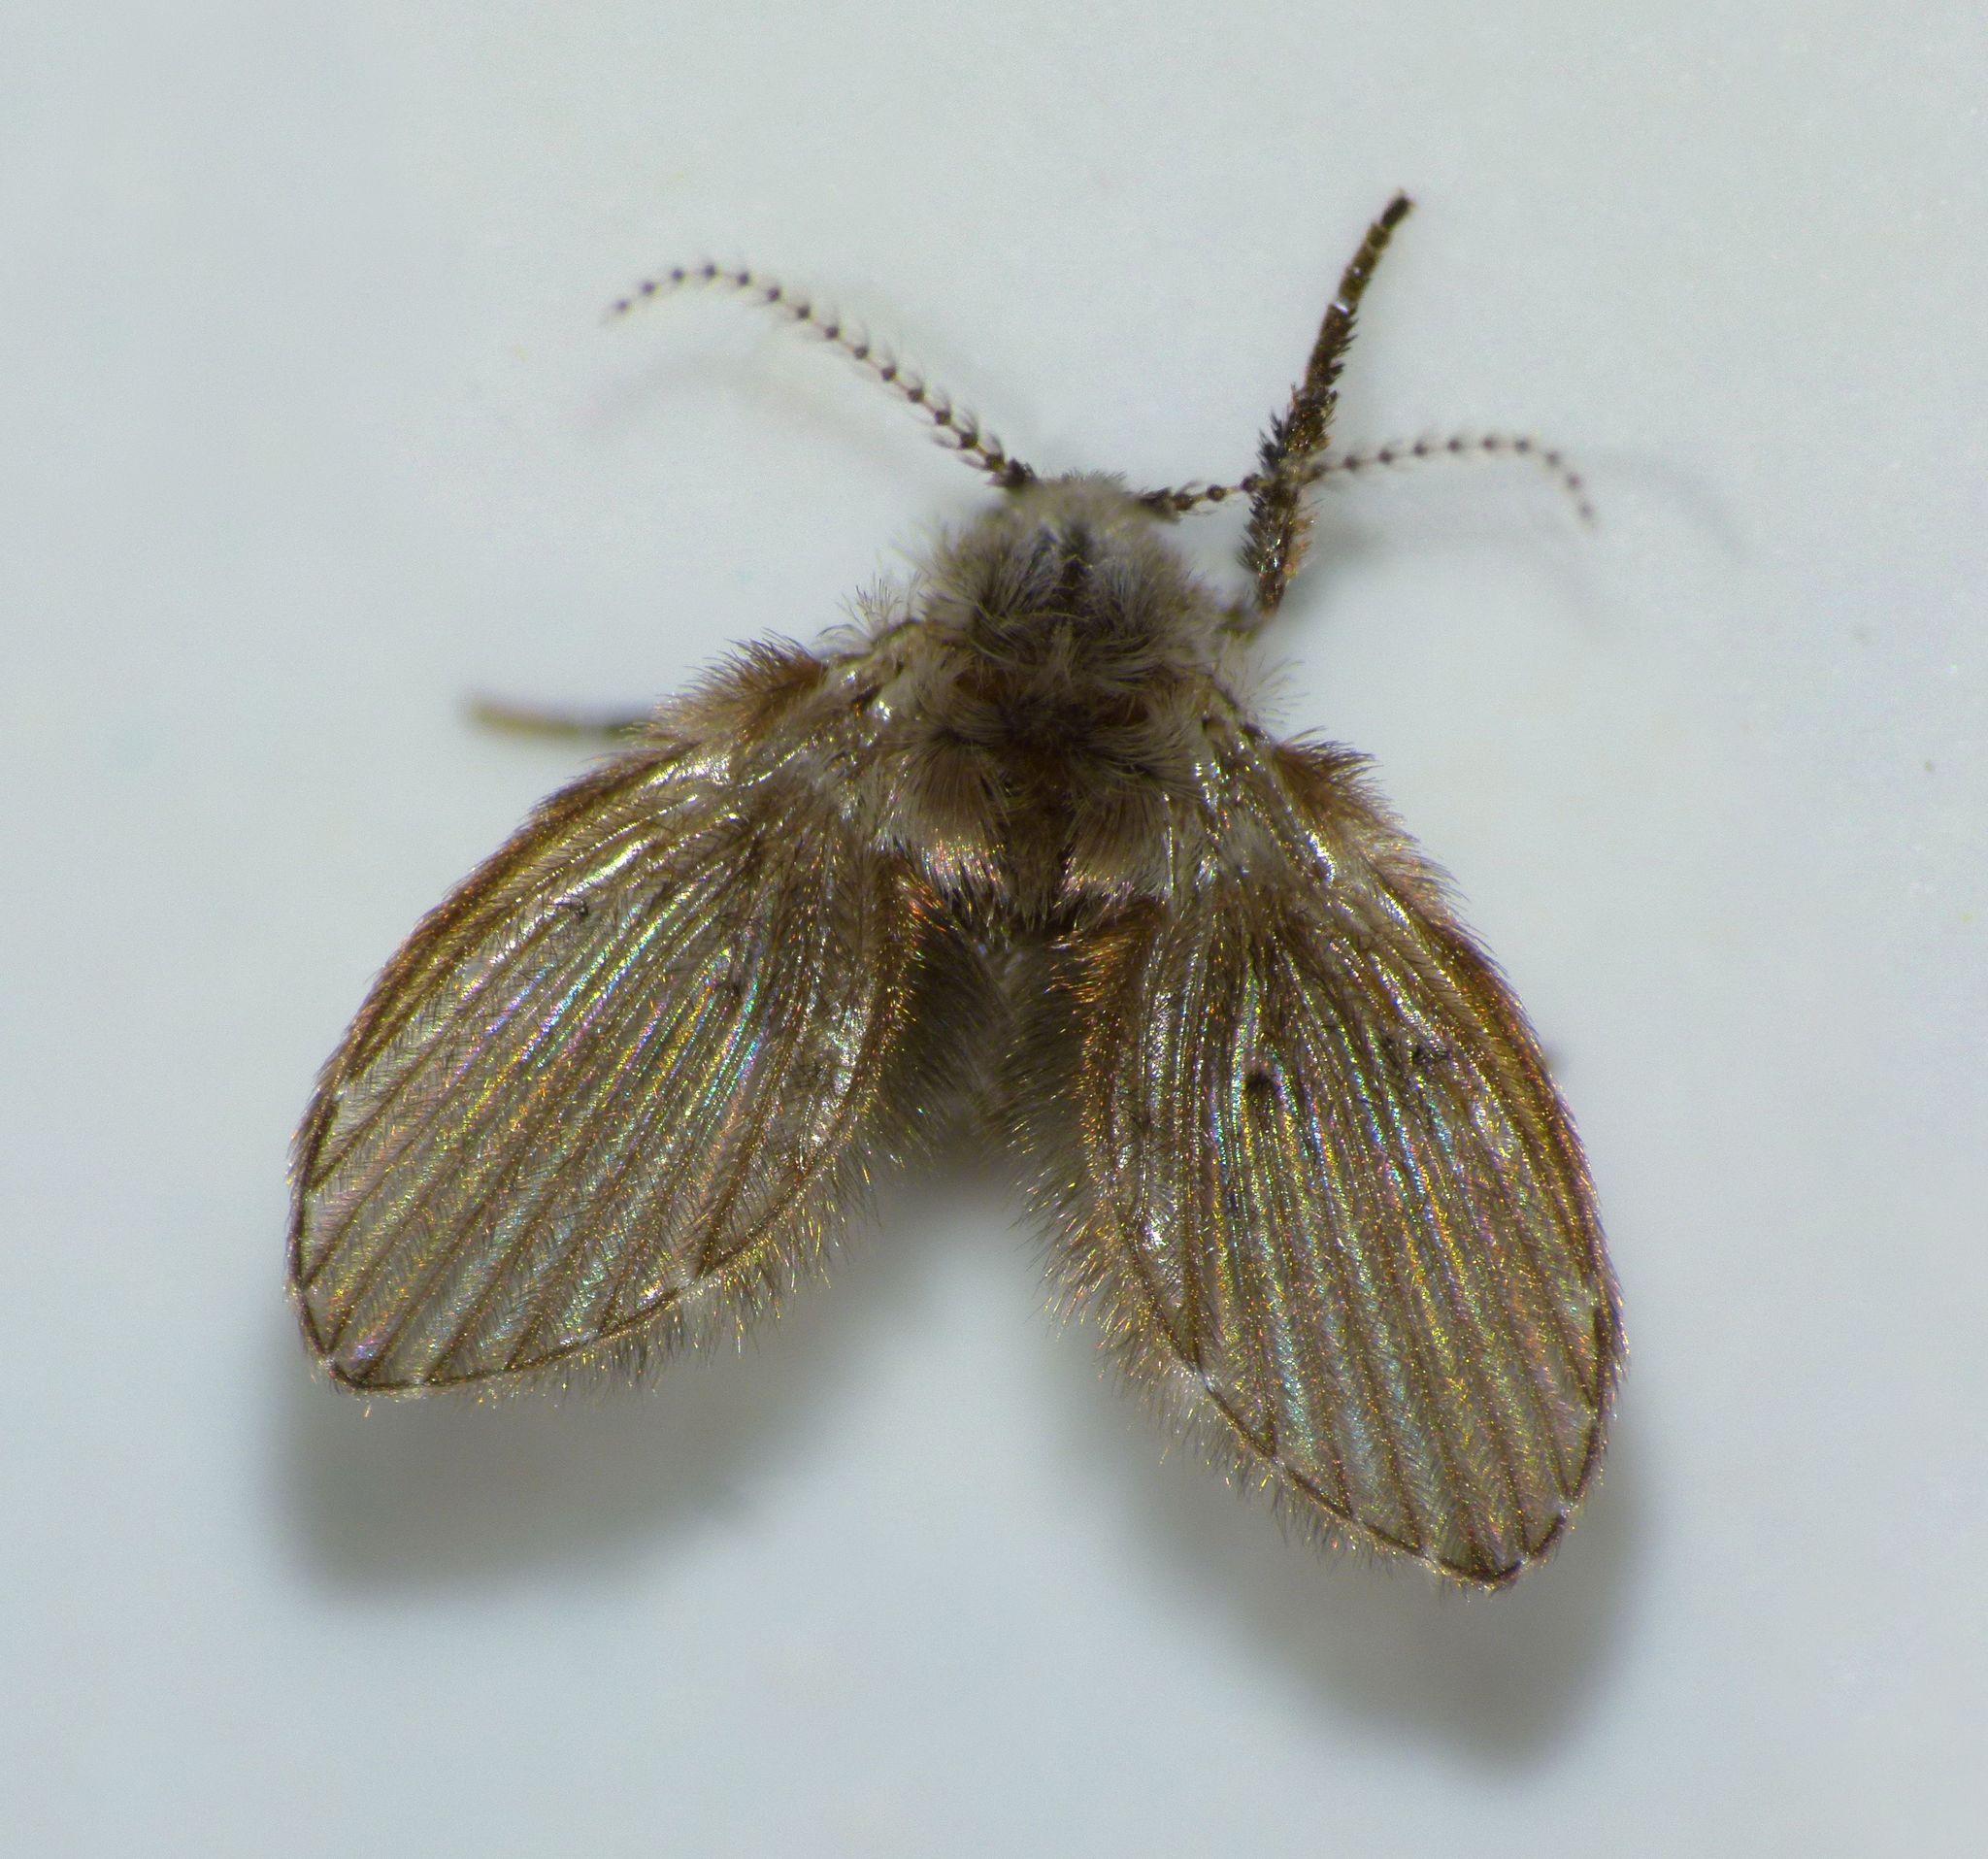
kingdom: Animalia
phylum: Arthropoda
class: Insecta
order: Diptera
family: Psychodidae
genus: Clogmia
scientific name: Clogmia albipunctatus
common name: White-spotted moth fly
